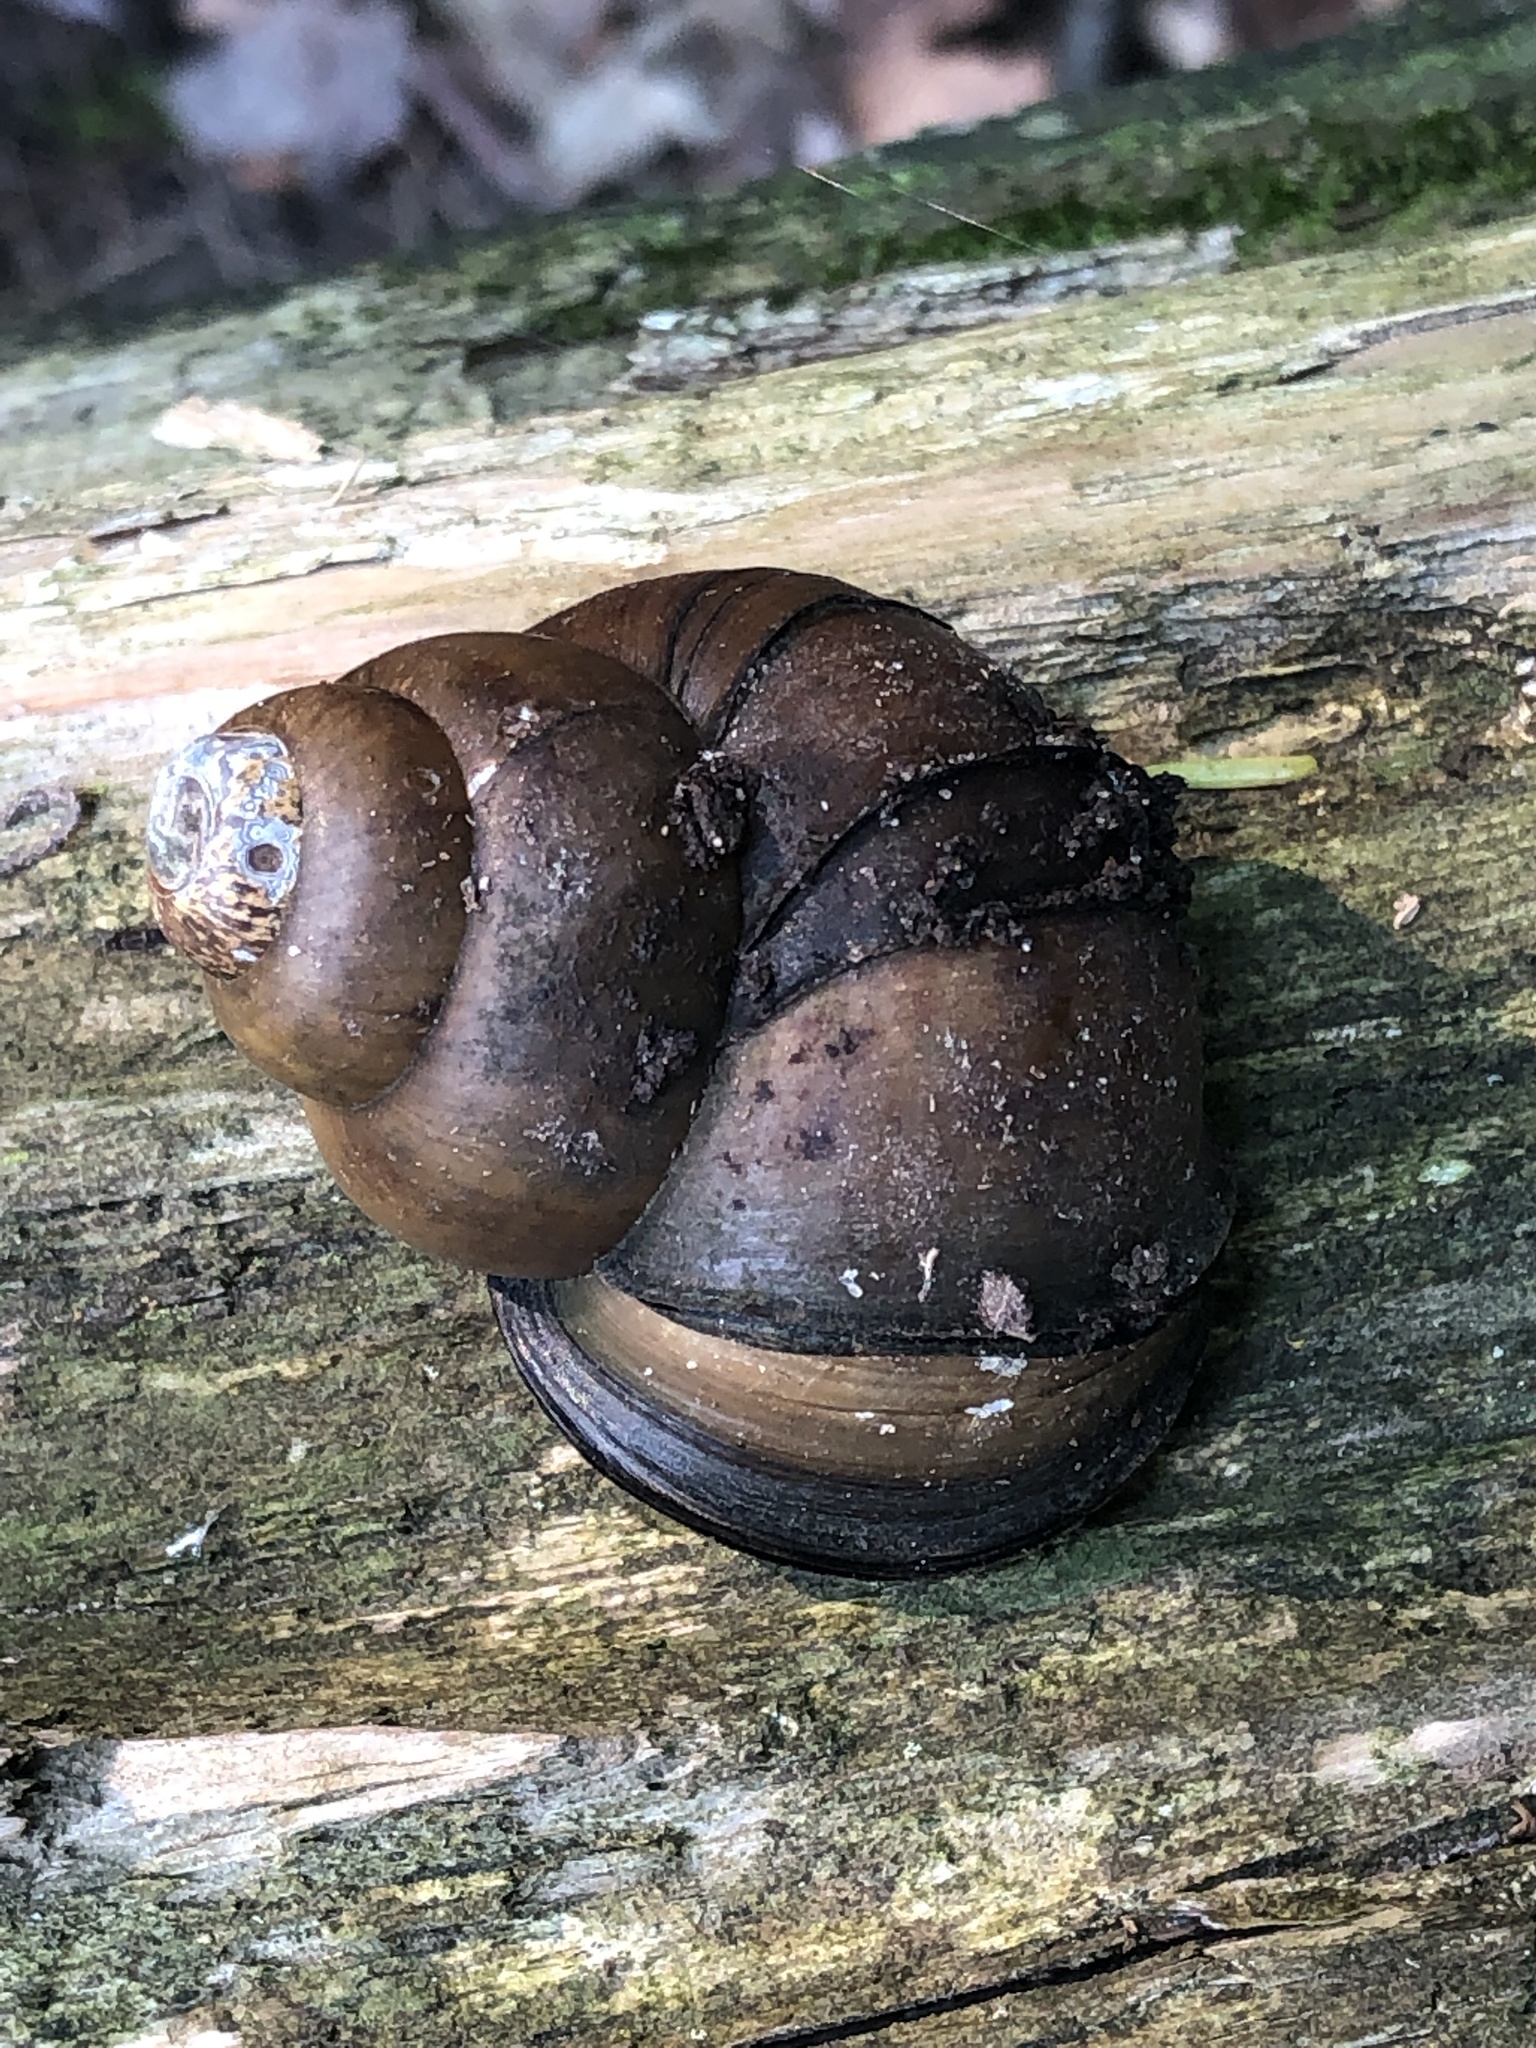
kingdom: Animalia
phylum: Mollusca
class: Gastropoda
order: Architaenioglossa
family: Viviparidae
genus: Cipangopaludina
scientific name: Cipangopaludina chinensis
